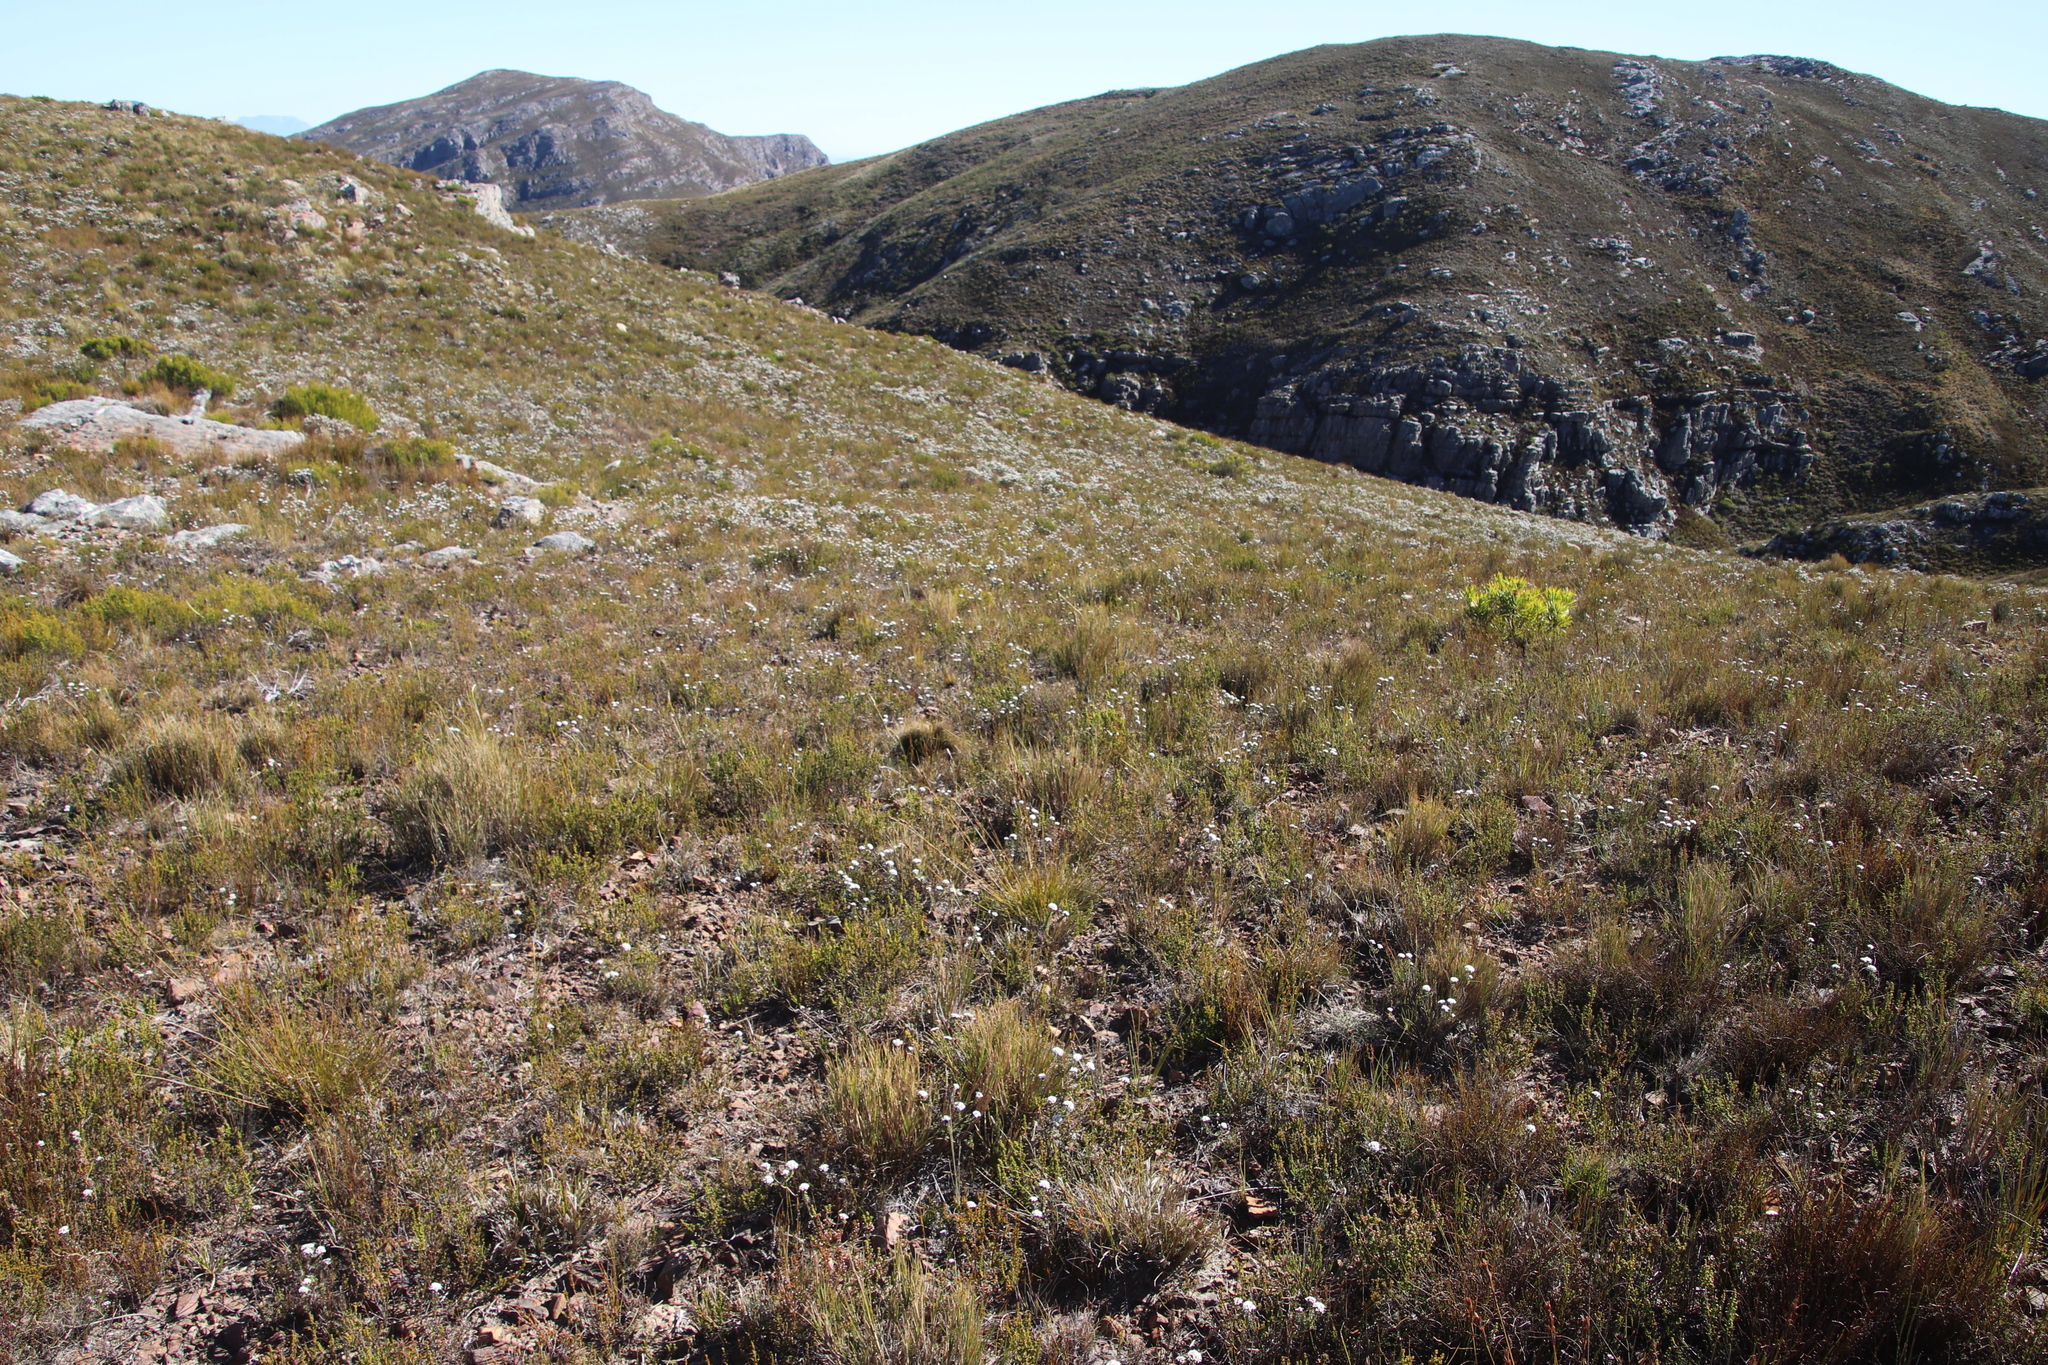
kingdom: Plantae
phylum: Tracheophyta
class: Magnoliopsida
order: Asterales
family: Asteraceae
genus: Metalasia
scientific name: Metalasia montana
